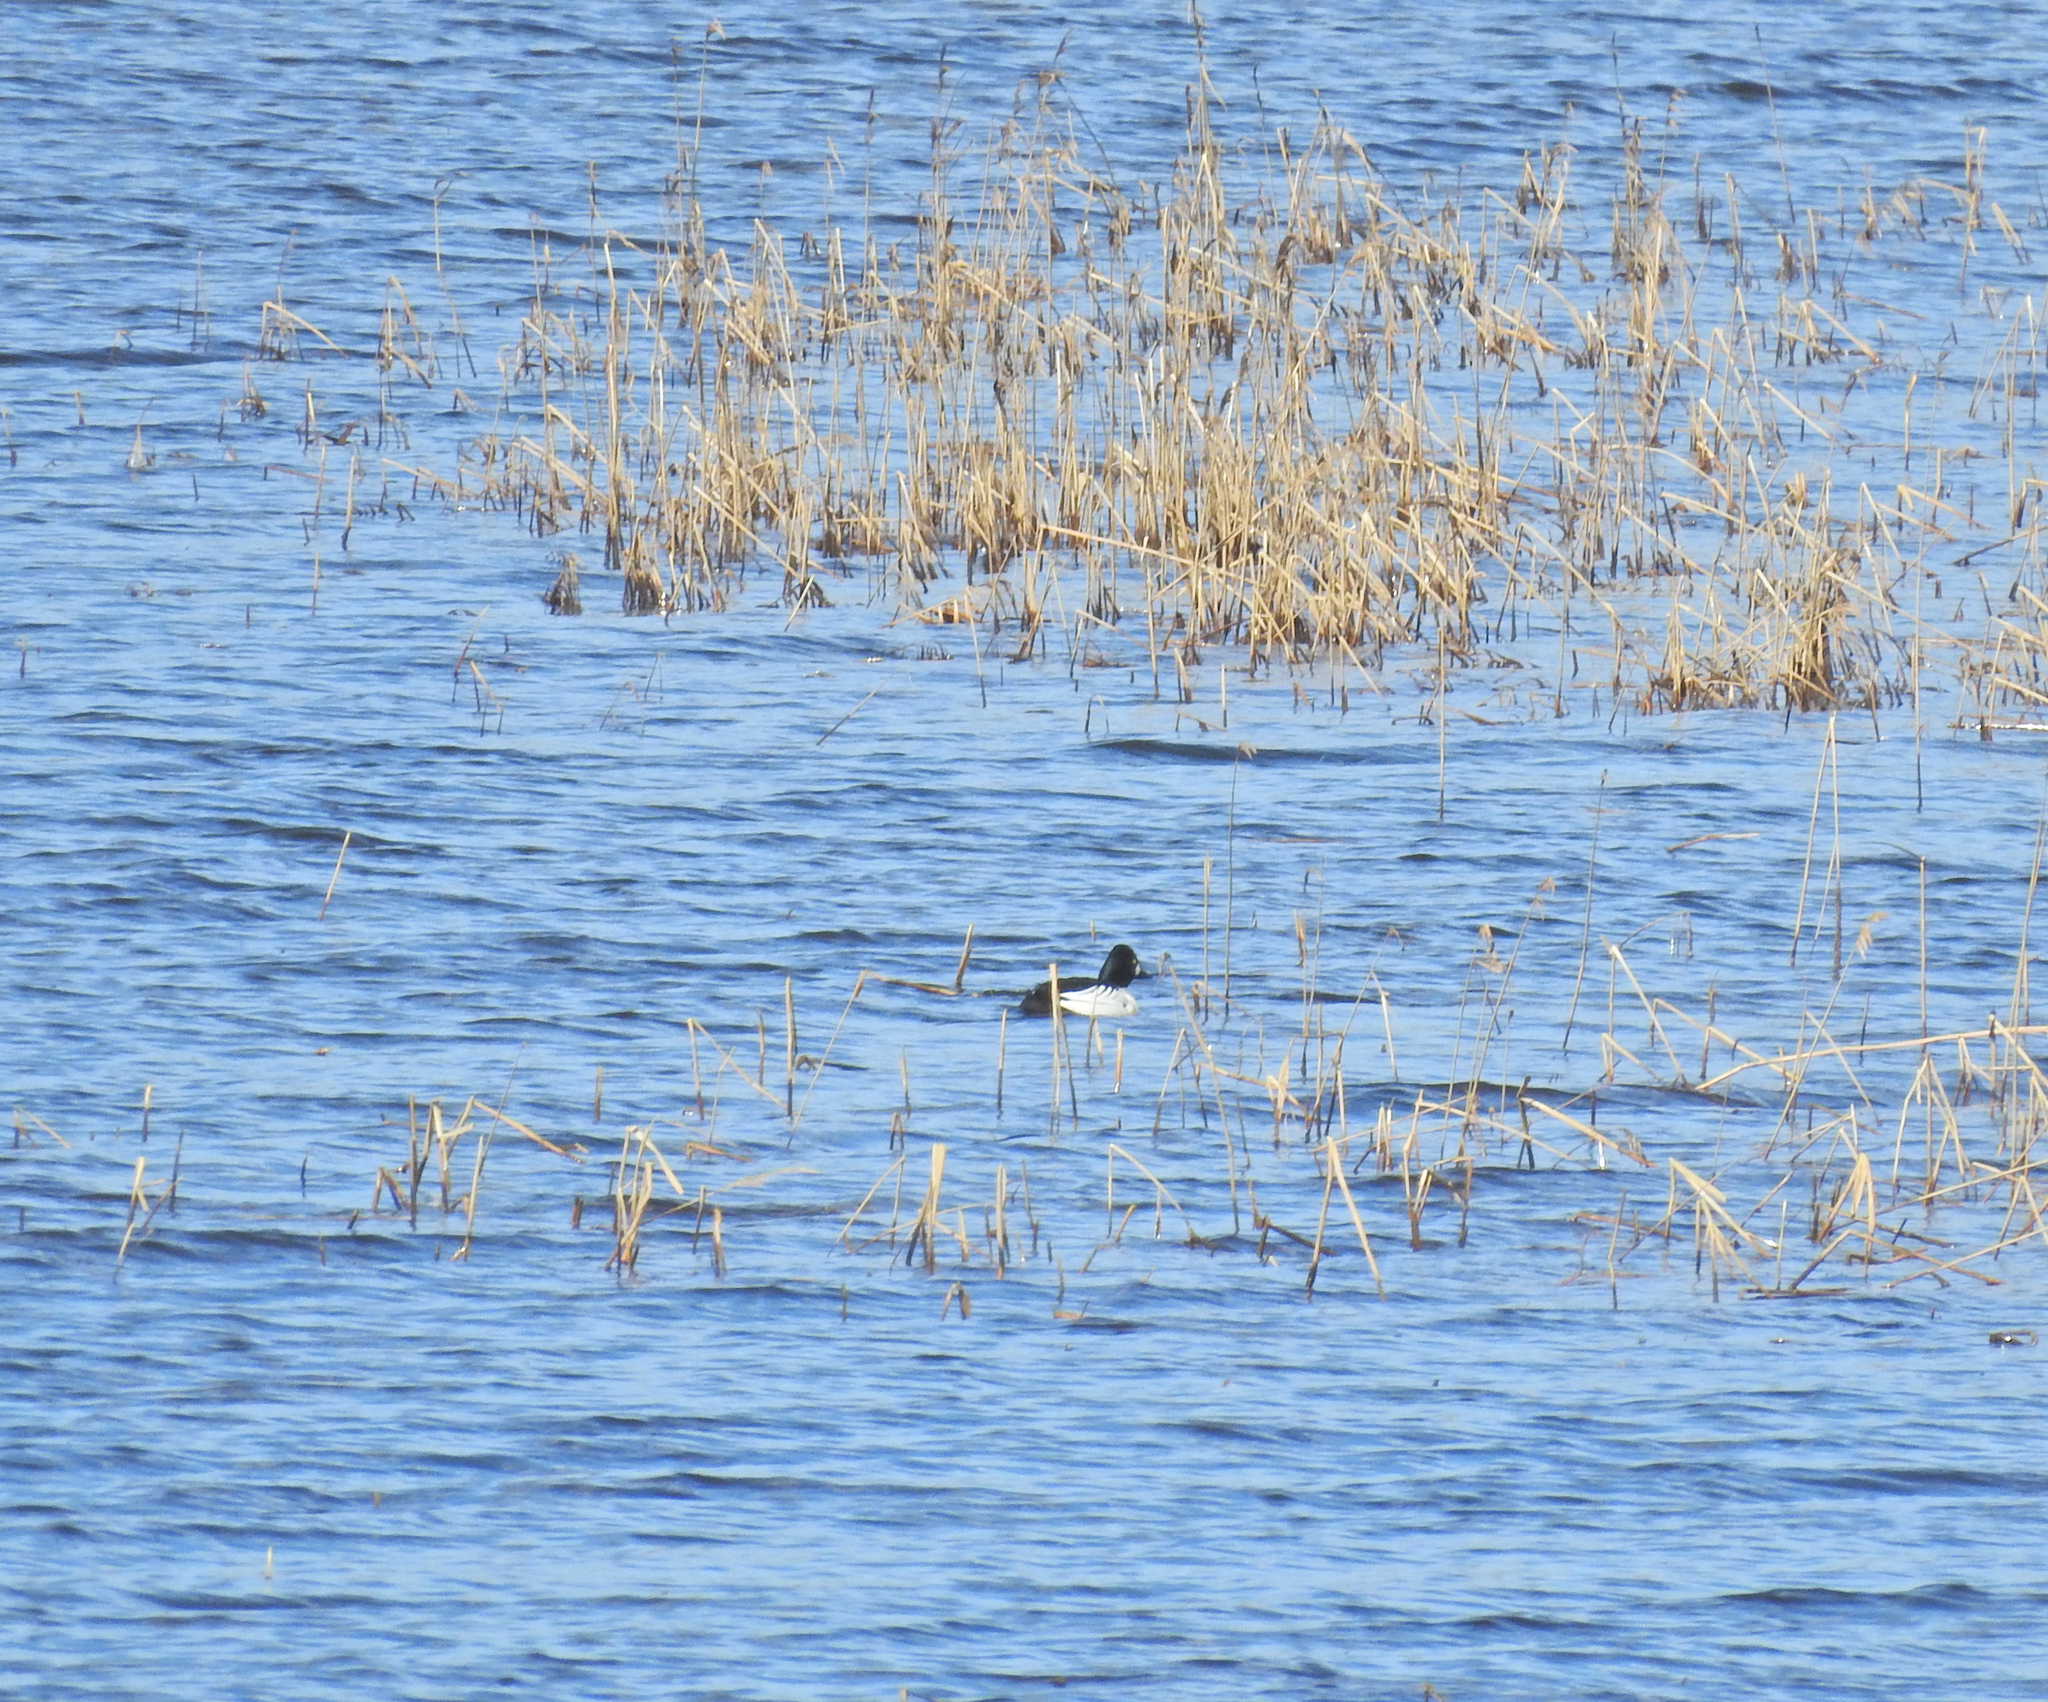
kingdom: Animalia
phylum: Chordata
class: Aves
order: Anseriformes
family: Anatidae
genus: Bucephala
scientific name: Bucephala clangula
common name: Common goldeneye
